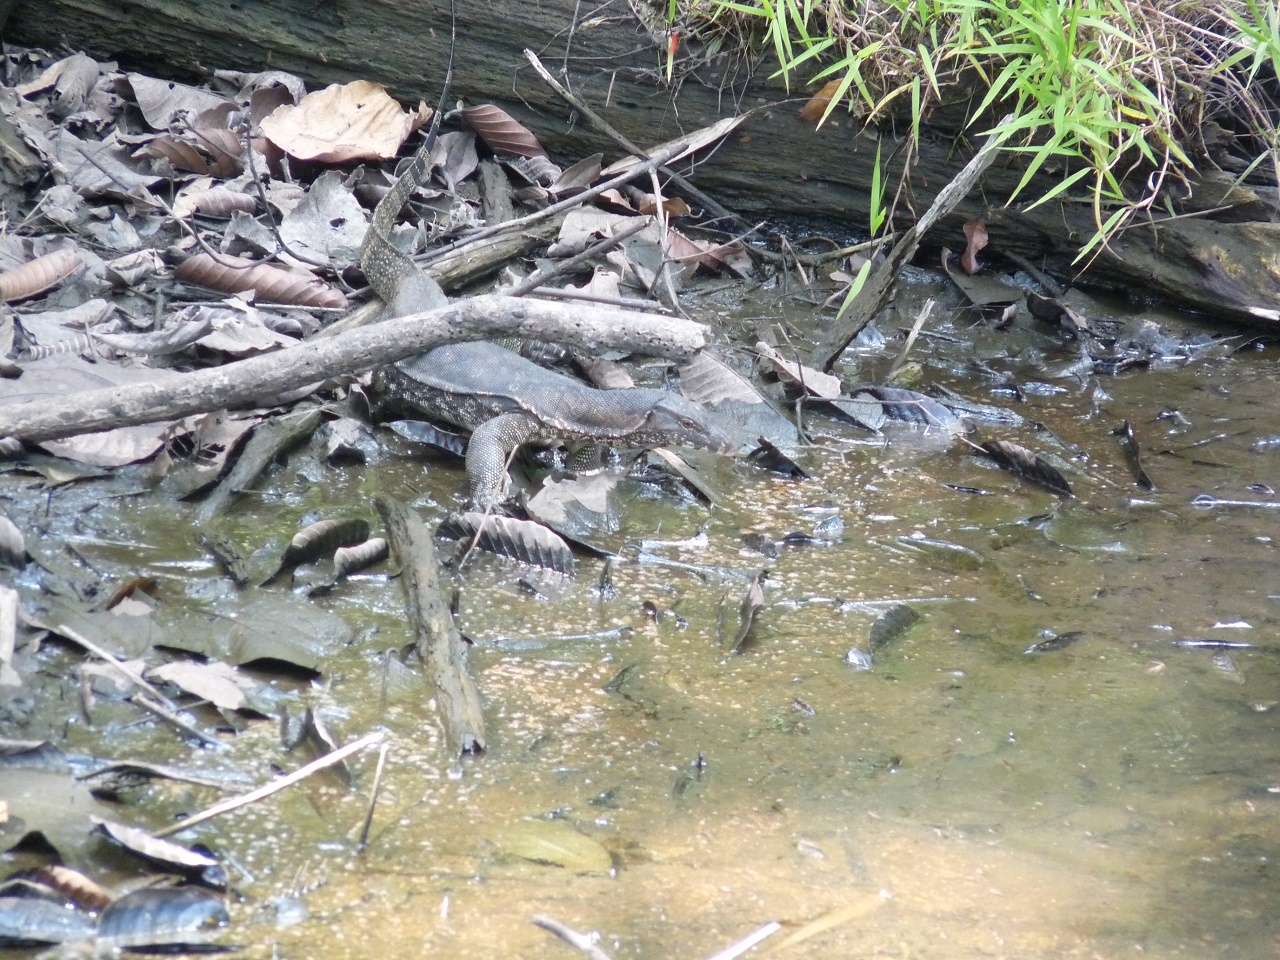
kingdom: Animalia
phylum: Chordata
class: Squamata
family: Varanidae
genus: Varanus
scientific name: Varanus salvator
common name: Common water monitor
